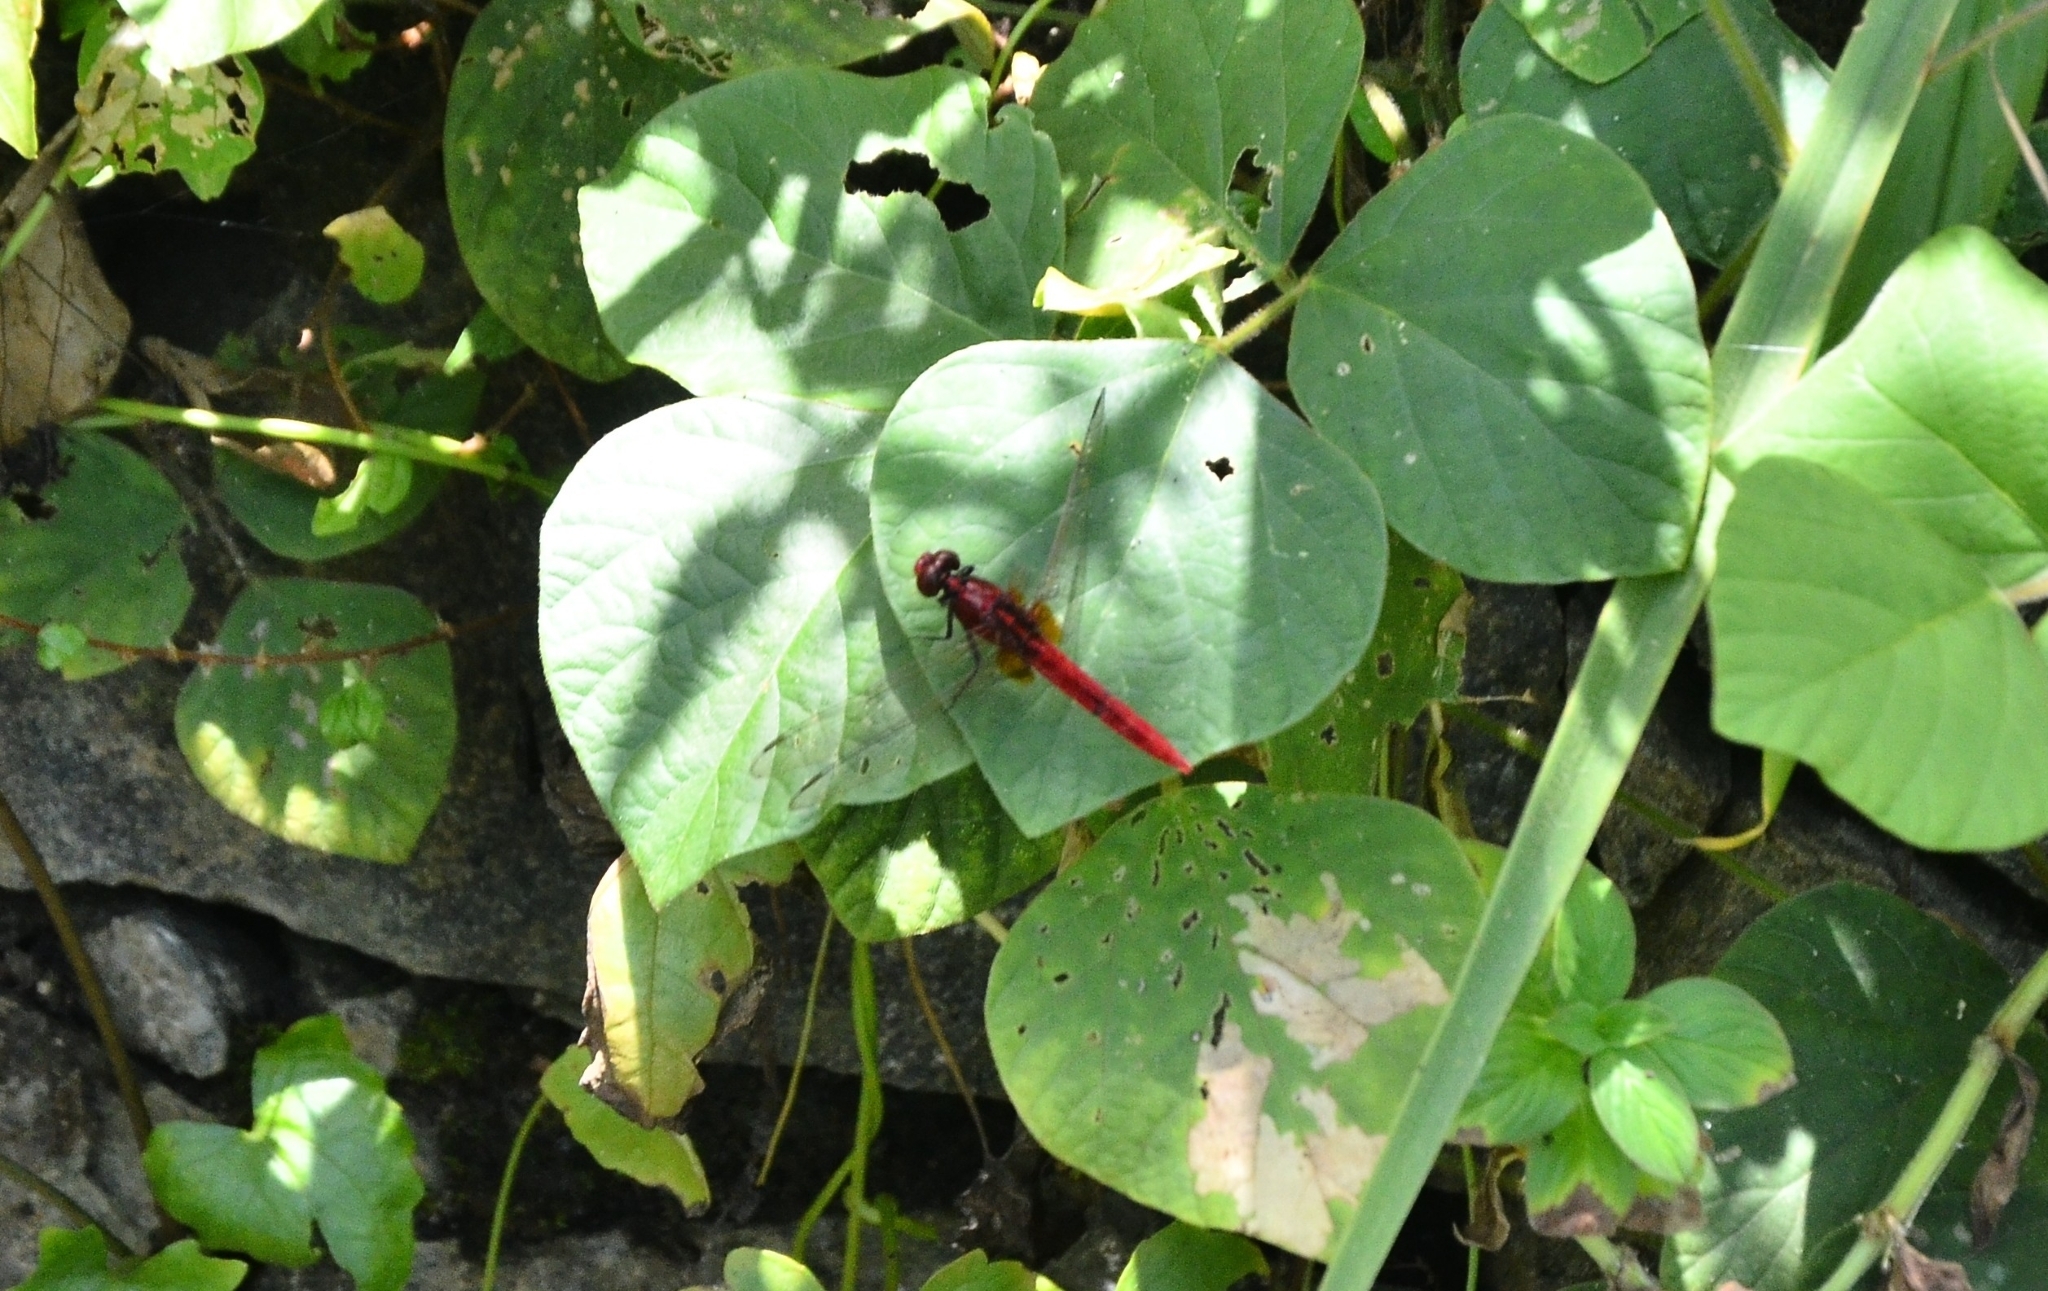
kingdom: Animalia
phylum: Arthropoda
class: Insecta
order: Odonata
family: Libellulidae
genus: Rhodothemis
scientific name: Rhodothemis rufa
